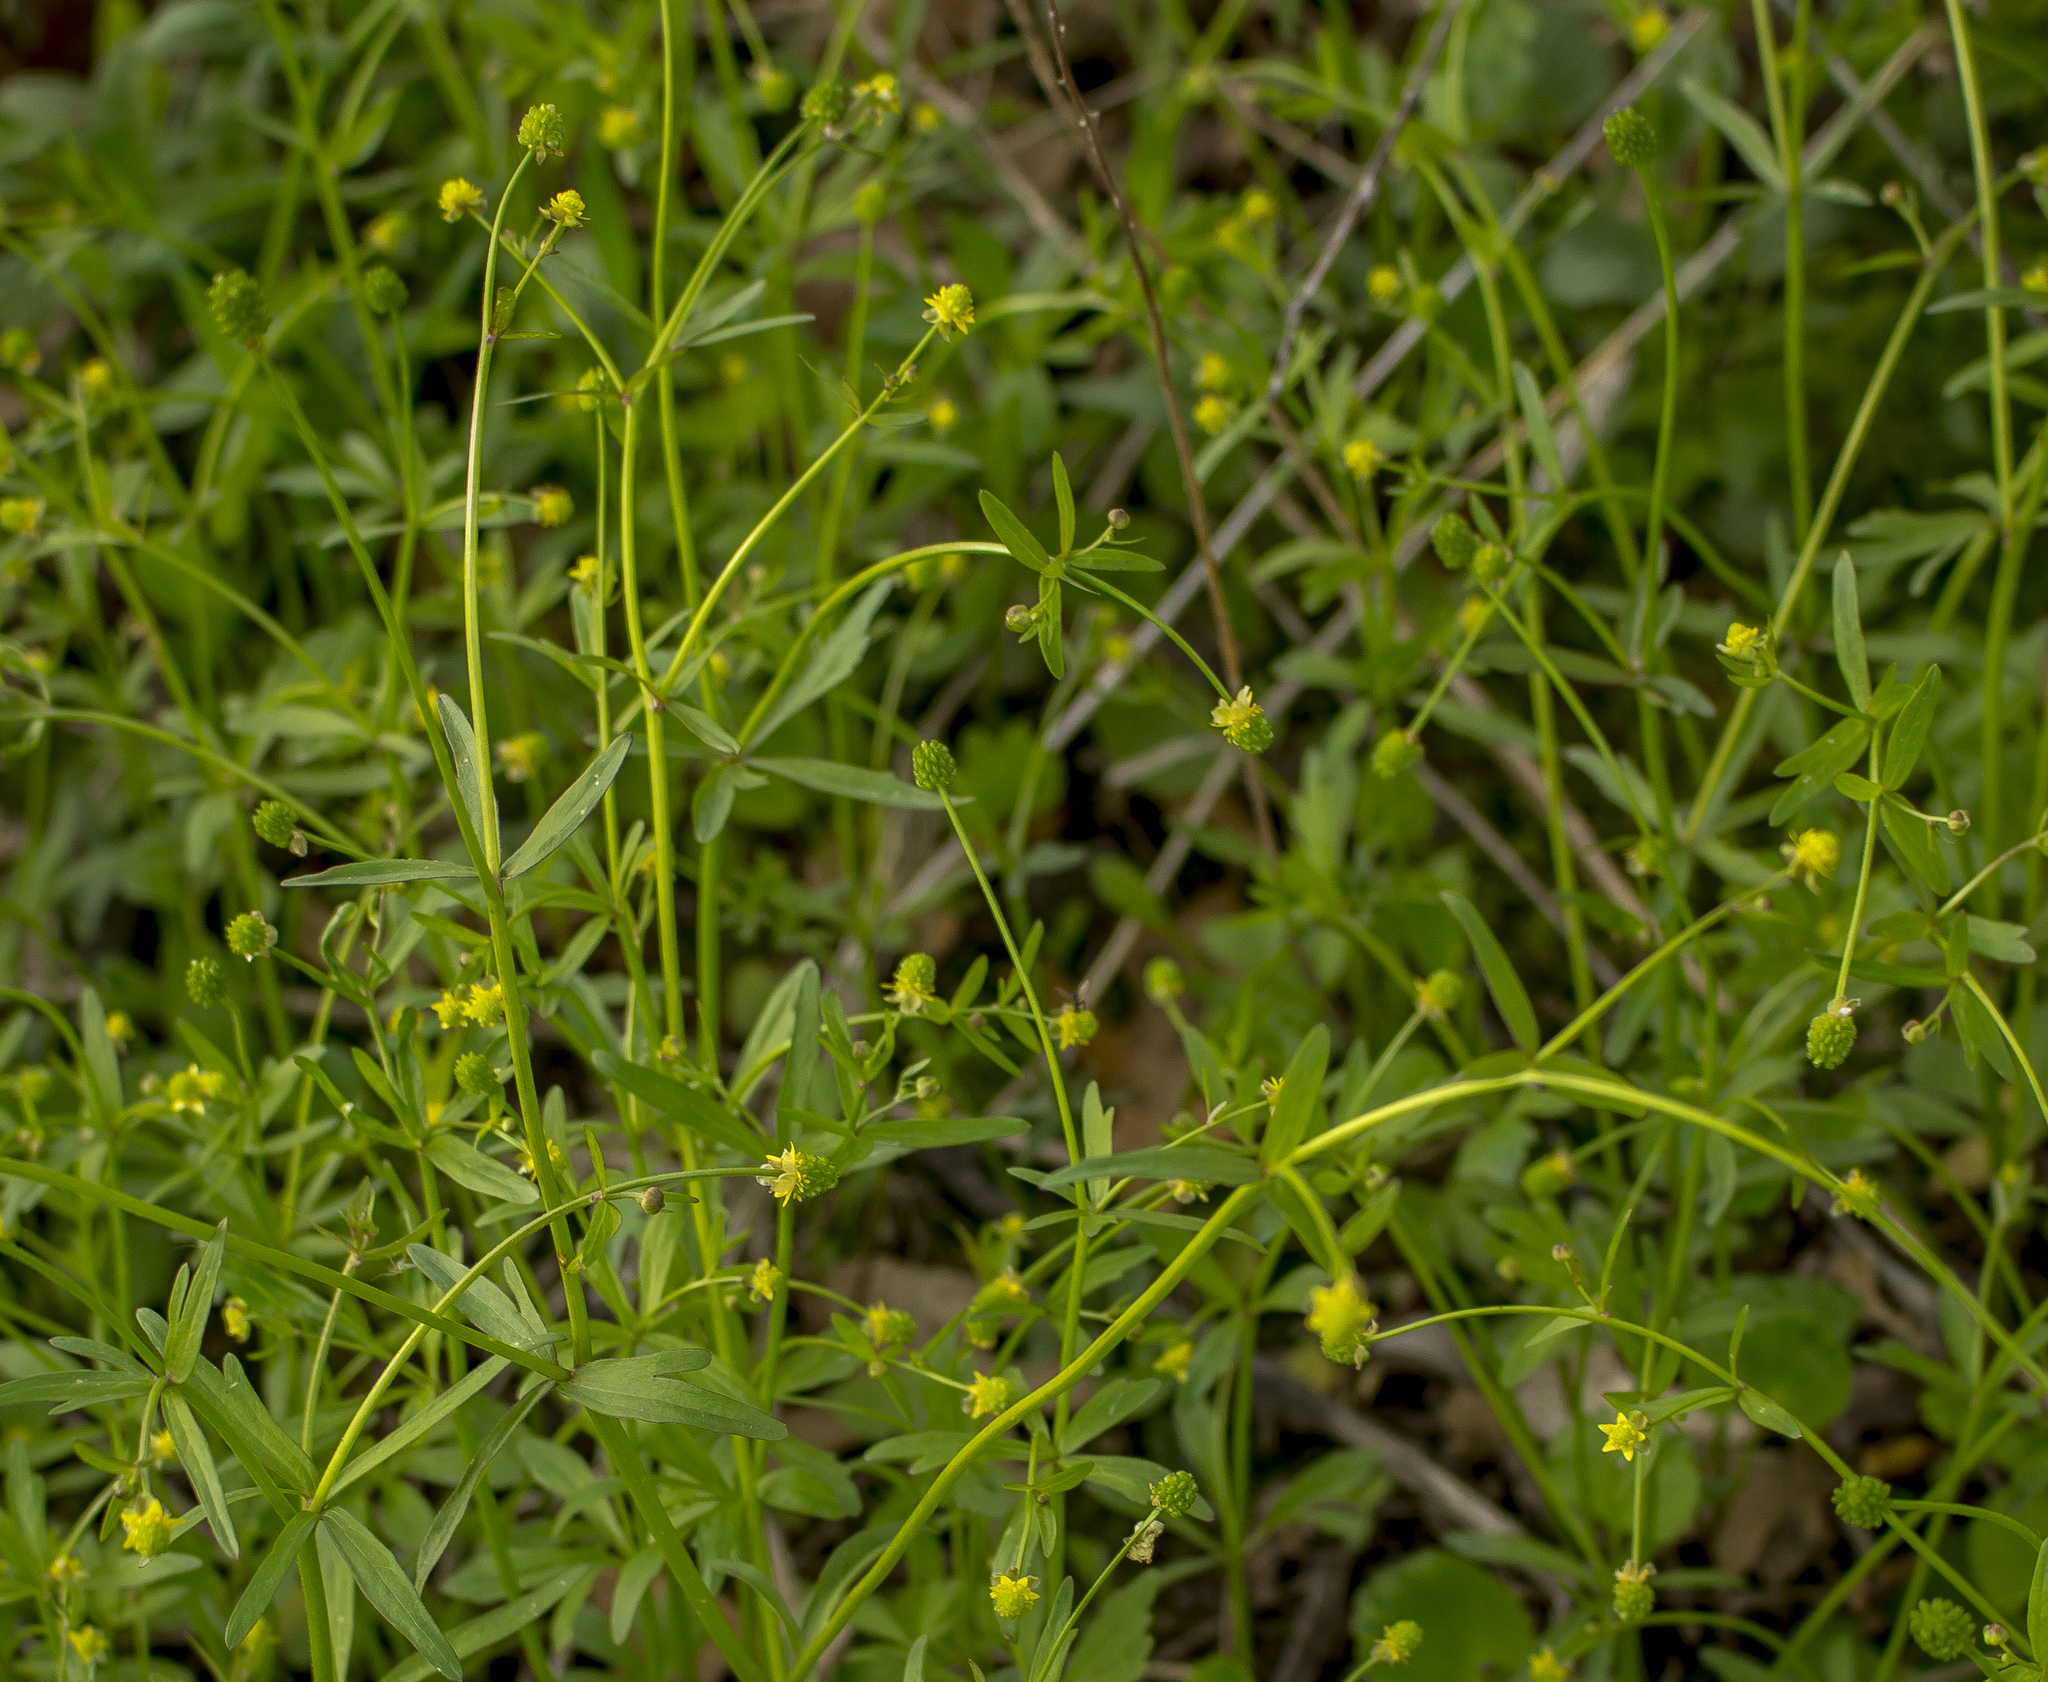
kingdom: Plantae
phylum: Tracheophyta
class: Magnoliopsida
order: Ranunculales
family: Ranunculaceae
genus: Ranunculus
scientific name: Ranunculus abortivus
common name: Early wood buttercup
